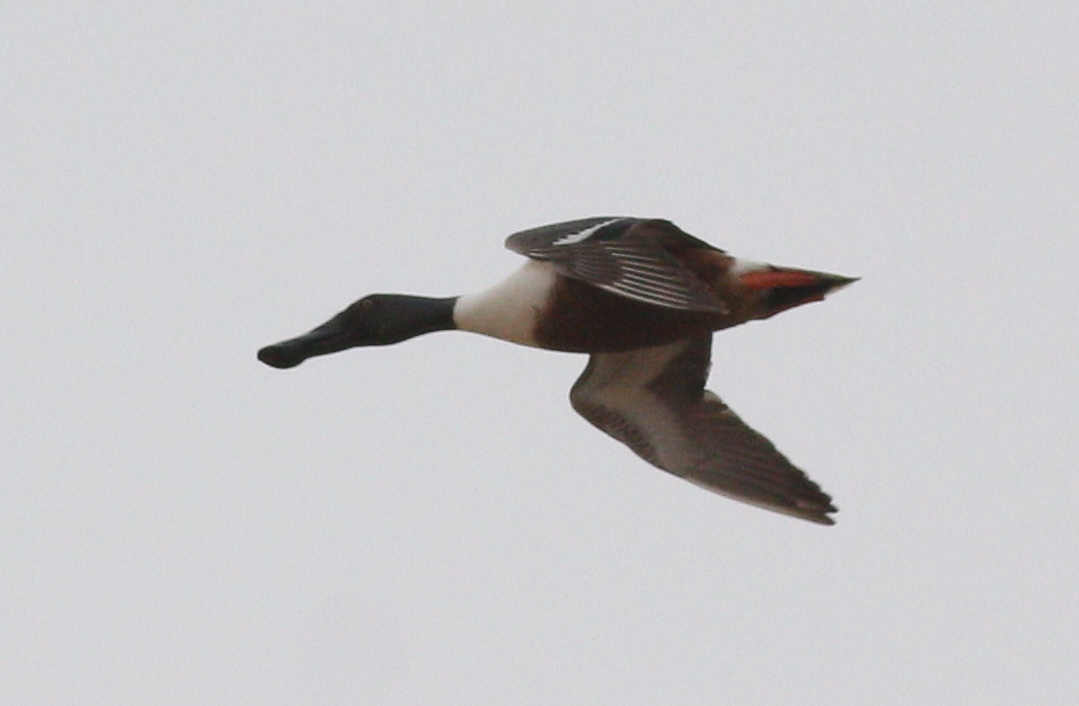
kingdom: Animalia
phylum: Chordata
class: Aves
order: Anseriformes
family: Anatidae
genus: Spatula
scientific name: Spatula clypeata
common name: Northern shoveler
